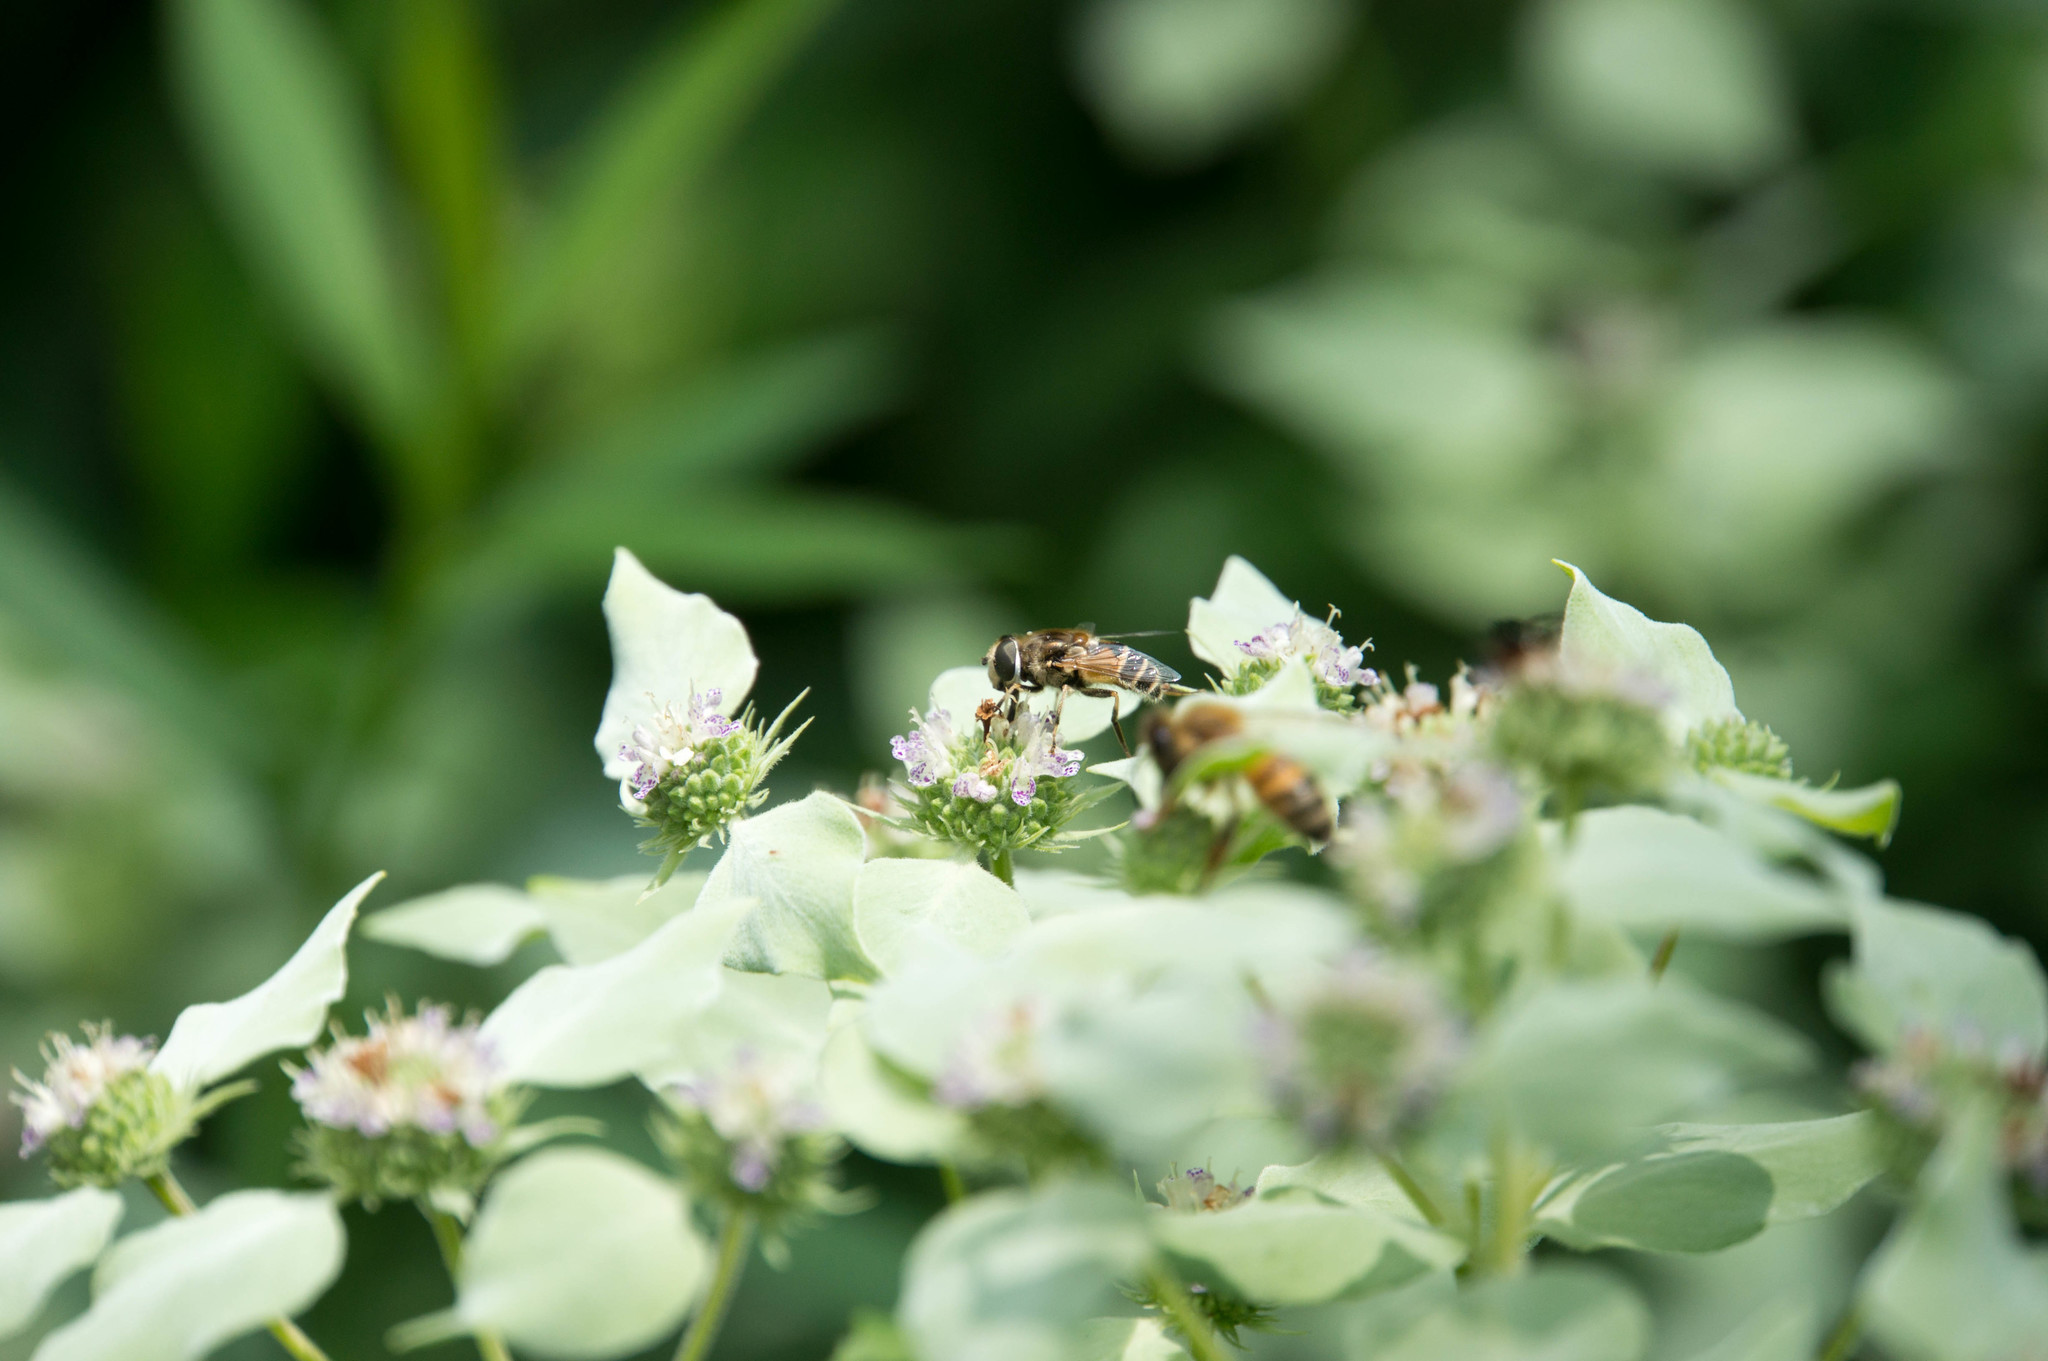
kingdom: Animalia
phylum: Arthropoda
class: Insecta
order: Diptera
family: Syrphidae
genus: Eristalis
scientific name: Eristalis arbustorum
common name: Hover fly
